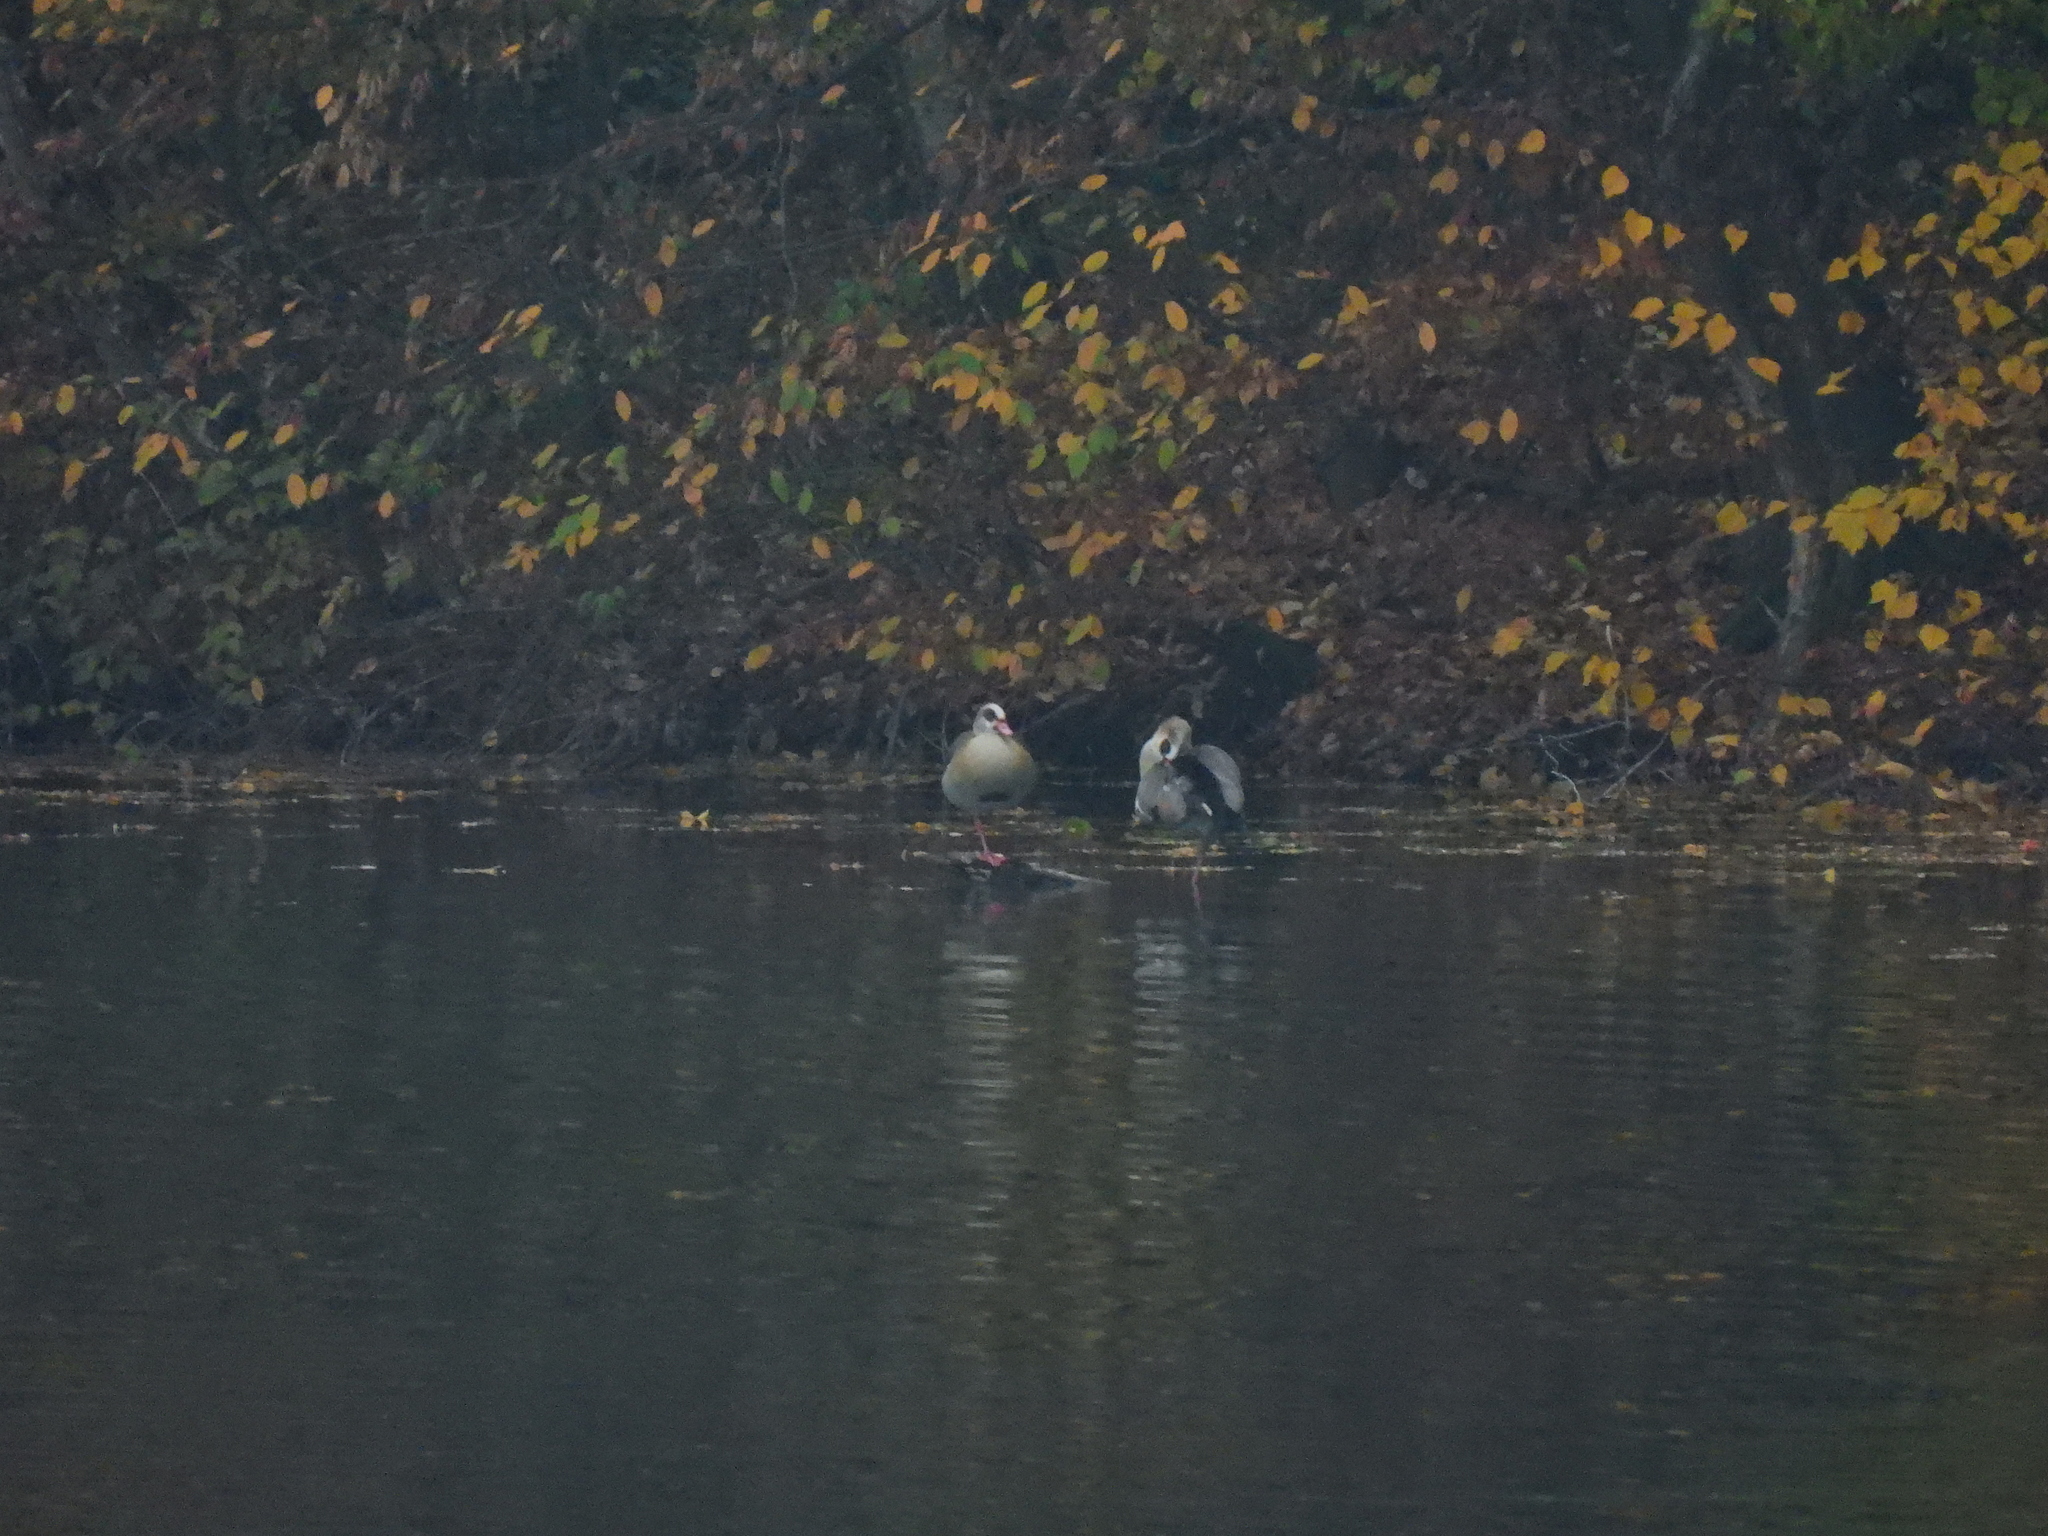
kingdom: Animalia
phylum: Chordata
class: Aves
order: Anseriformes
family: Anatidae
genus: Alopochen
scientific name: Alopochen aegyptiaca
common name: Egyptian goose
